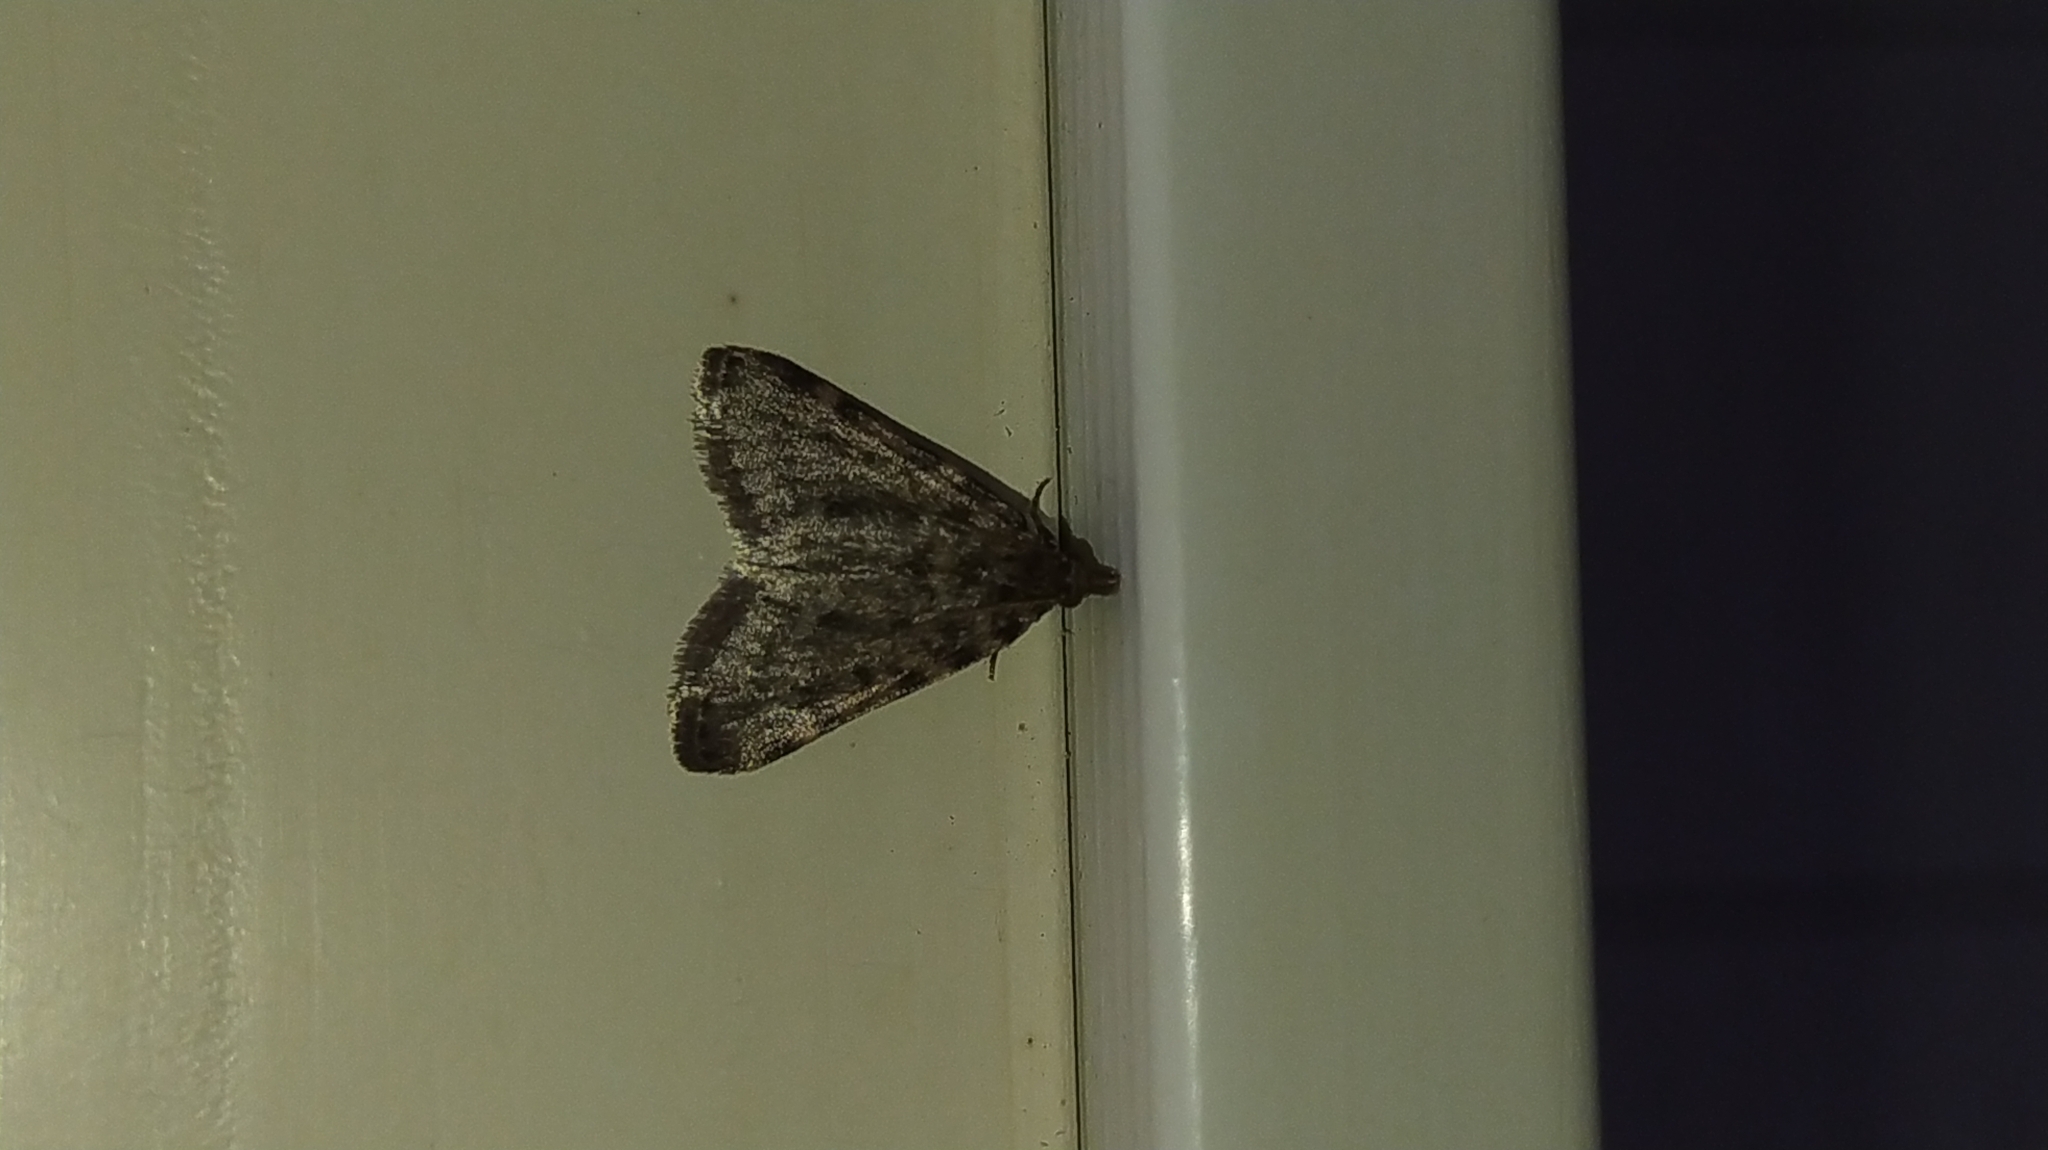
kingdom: Animalia
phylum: Arthropoda
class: Insecta
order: Lepidoptera
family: Pyralidae
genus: Aglossa
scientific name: Aglossa pinguinalis
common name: Large tabby
